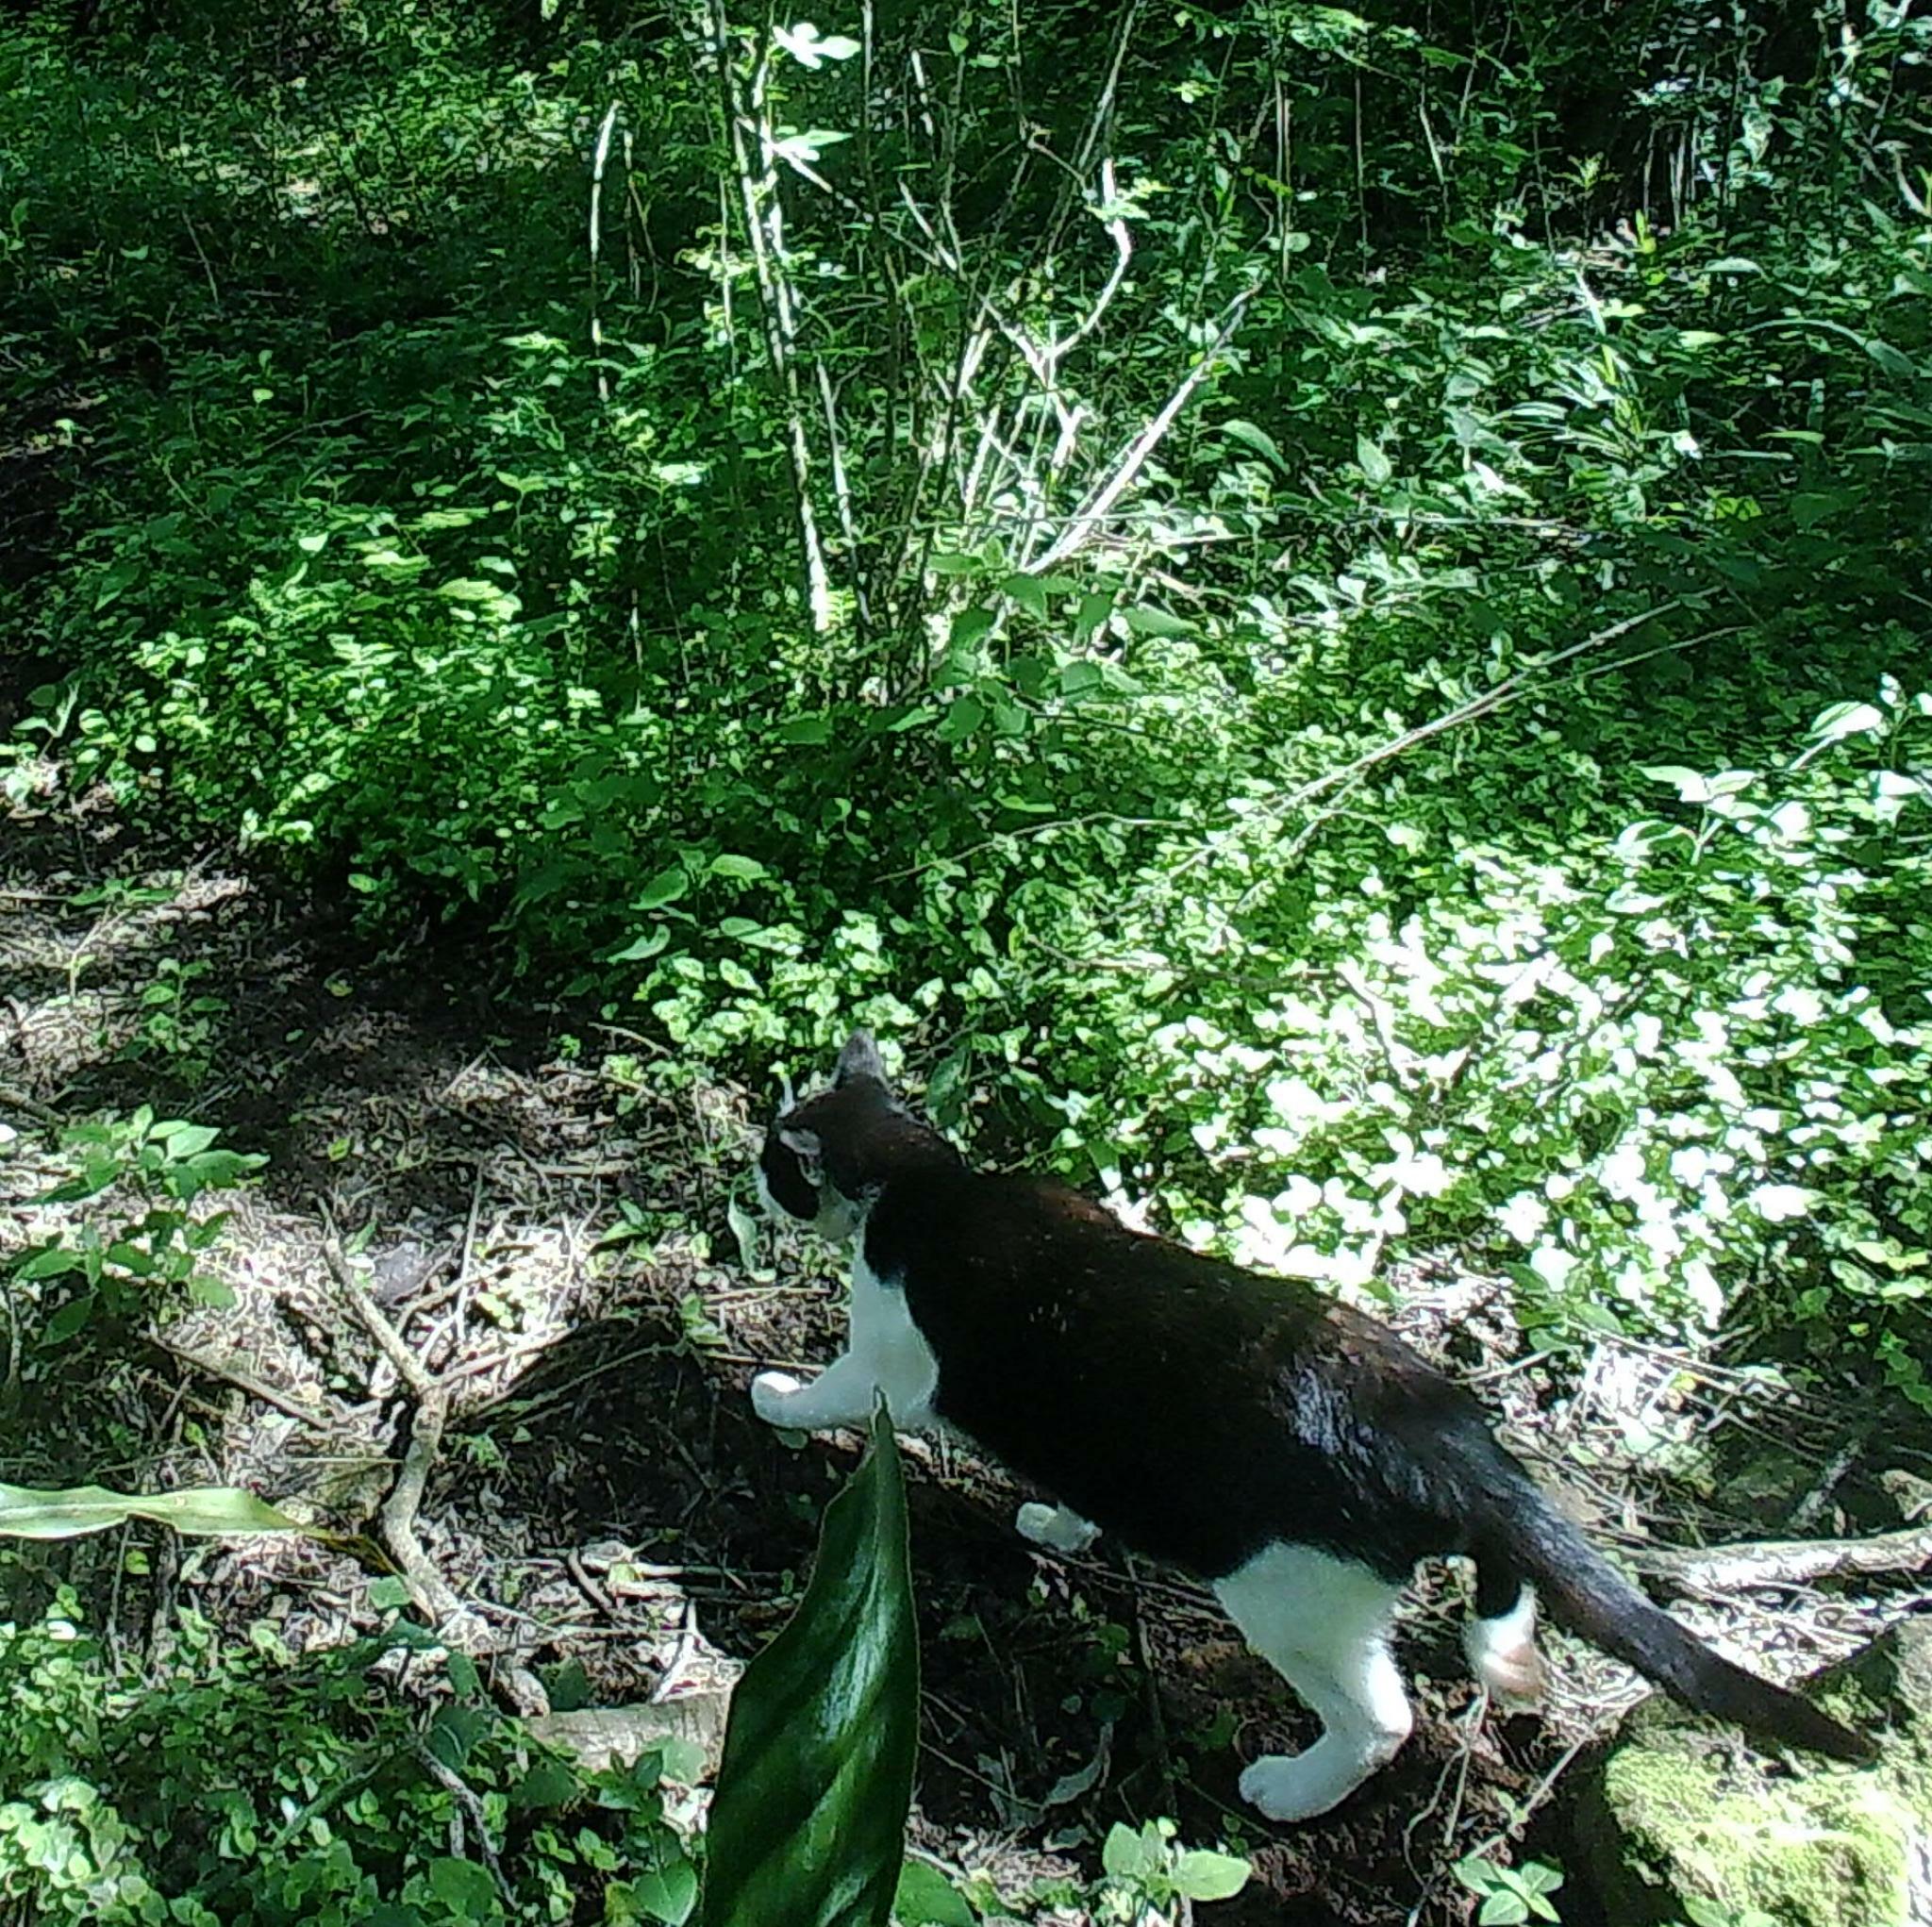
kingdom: Animalia
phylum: Chordata
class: Mammalia
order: Carnivora
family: Felidae
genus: Felis
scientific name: Felis catus
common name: Domestic cat
